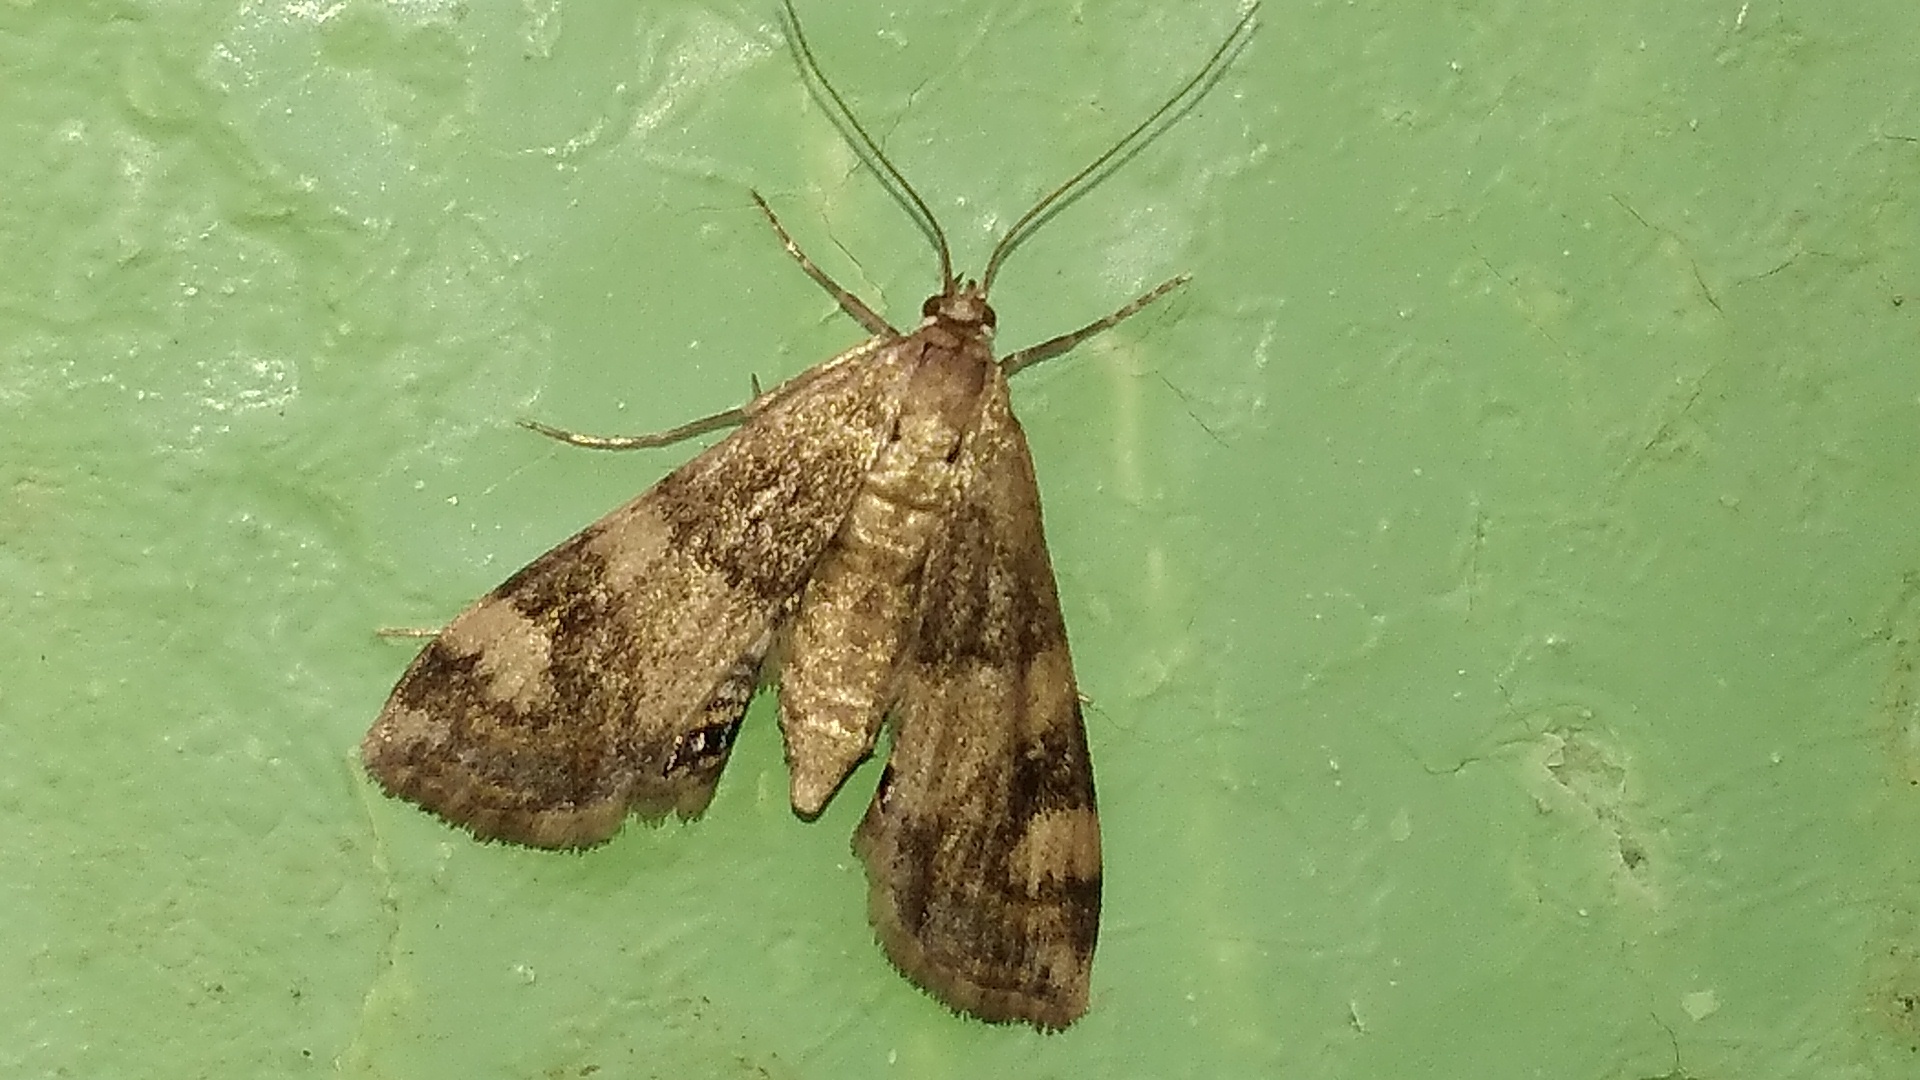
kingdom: Animalia
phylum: Arthropoda
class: Insecta
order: Lepidoptera
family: Crambidae
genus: Cataclysta
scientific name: Cataclysta lemnata
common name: Small china-mark
